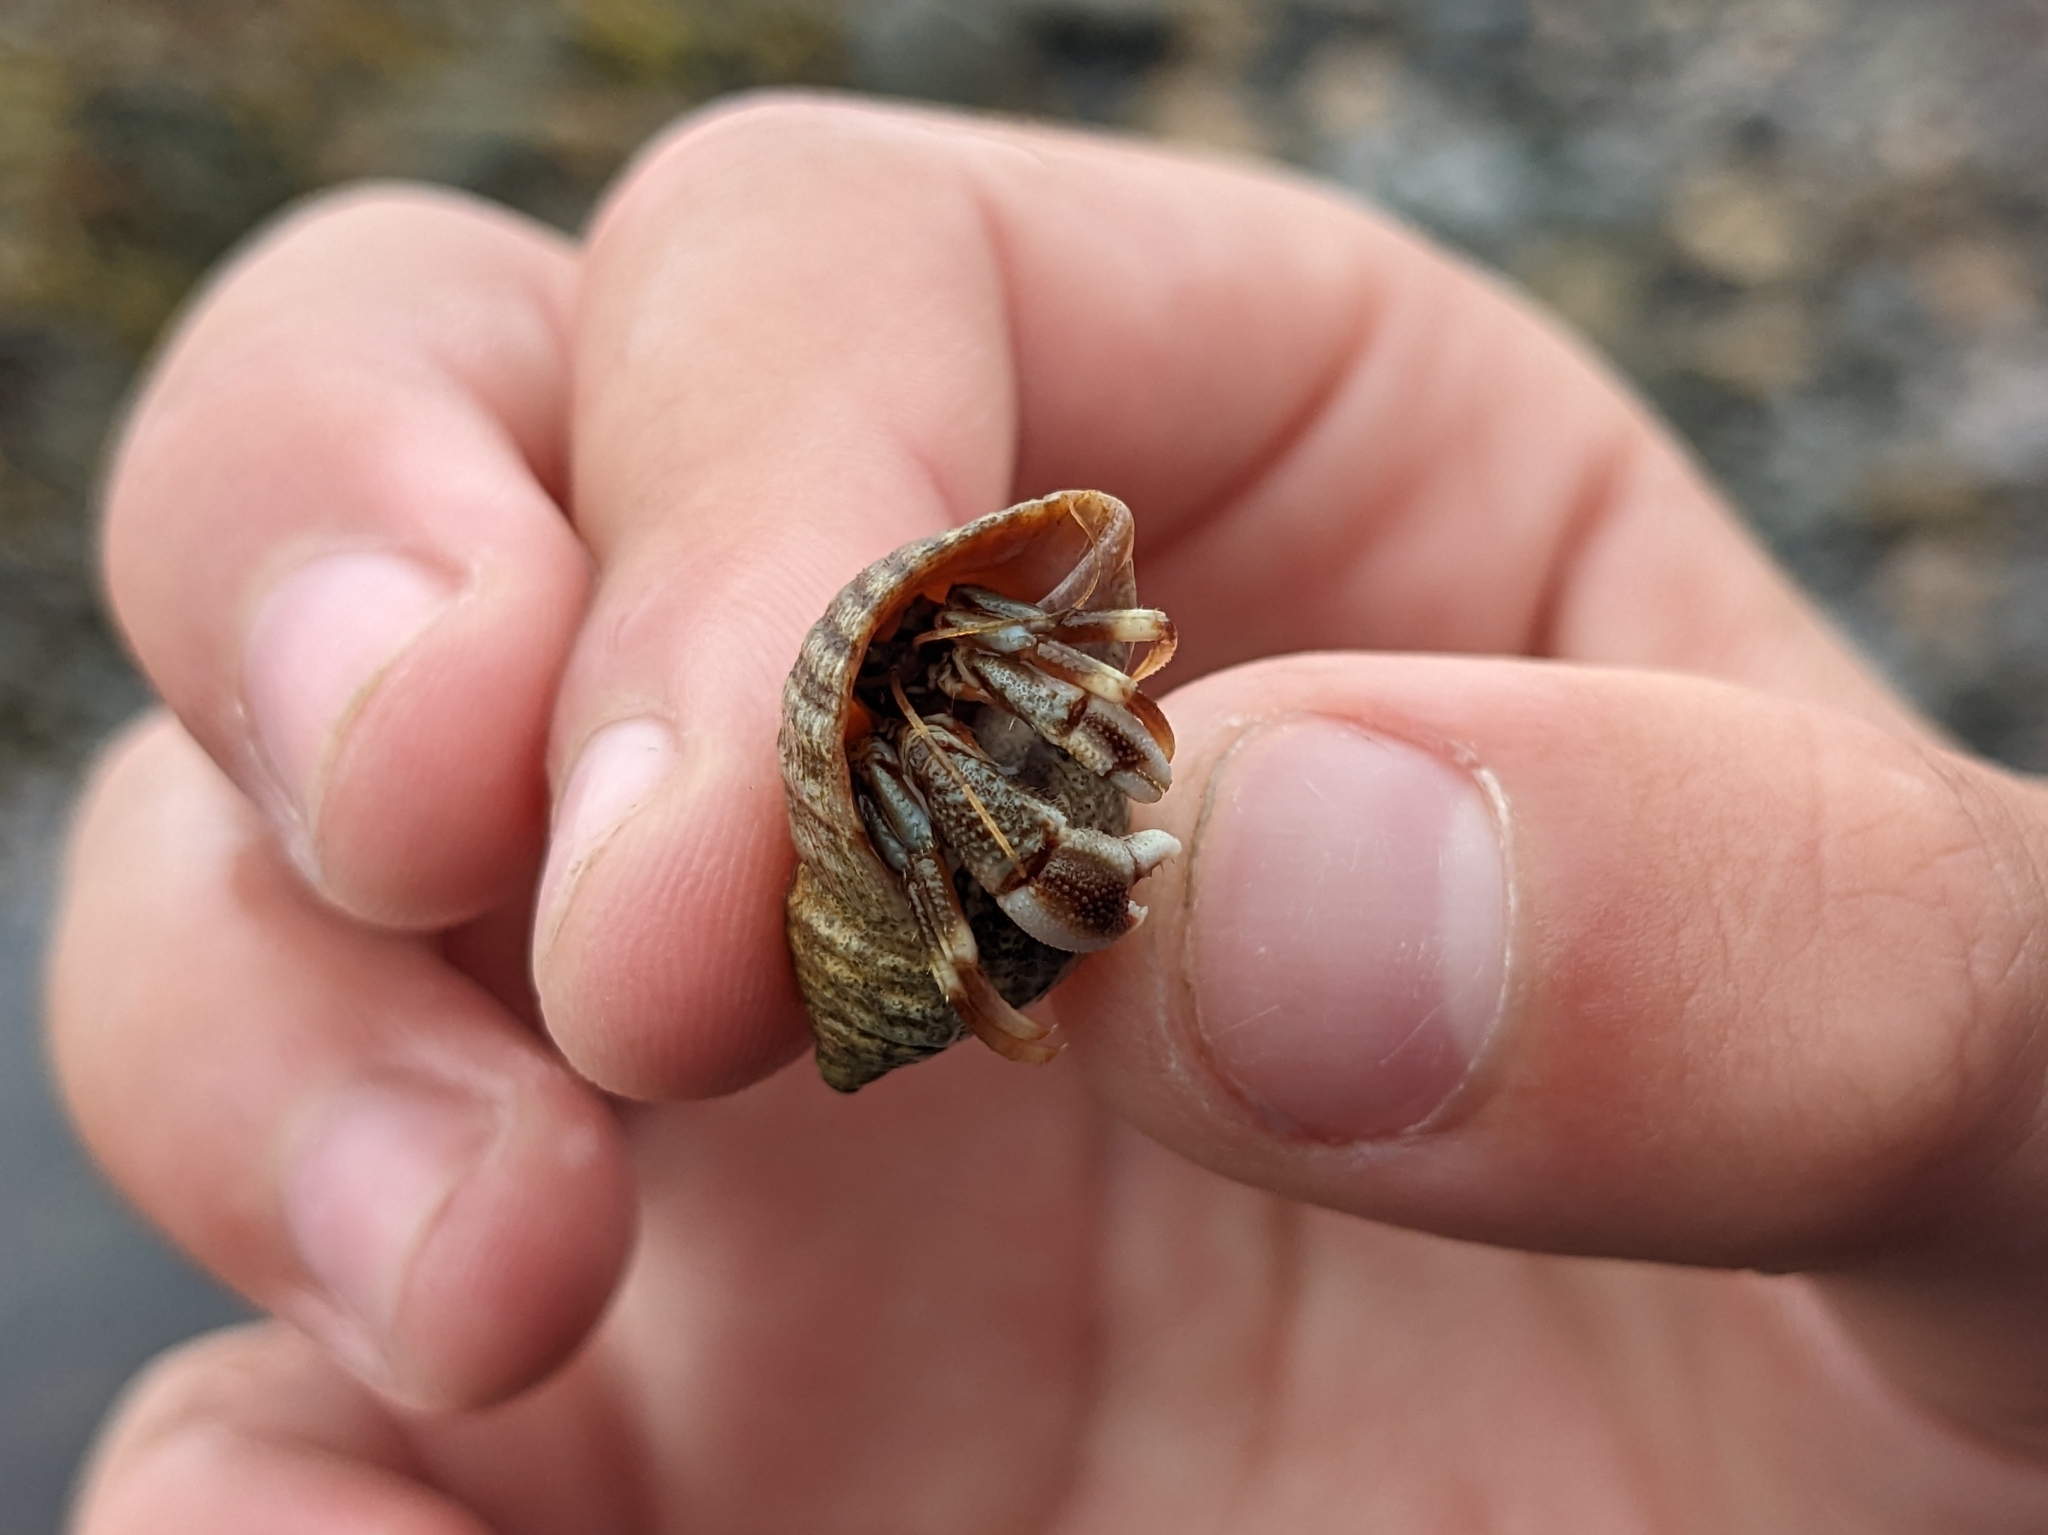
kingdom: Animalia
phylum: Arthropoda
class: Malacostraca
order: Decapoda
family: Paguridae
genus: Pagurus
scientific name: Pagurus bernhardus
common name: Hermit crab
